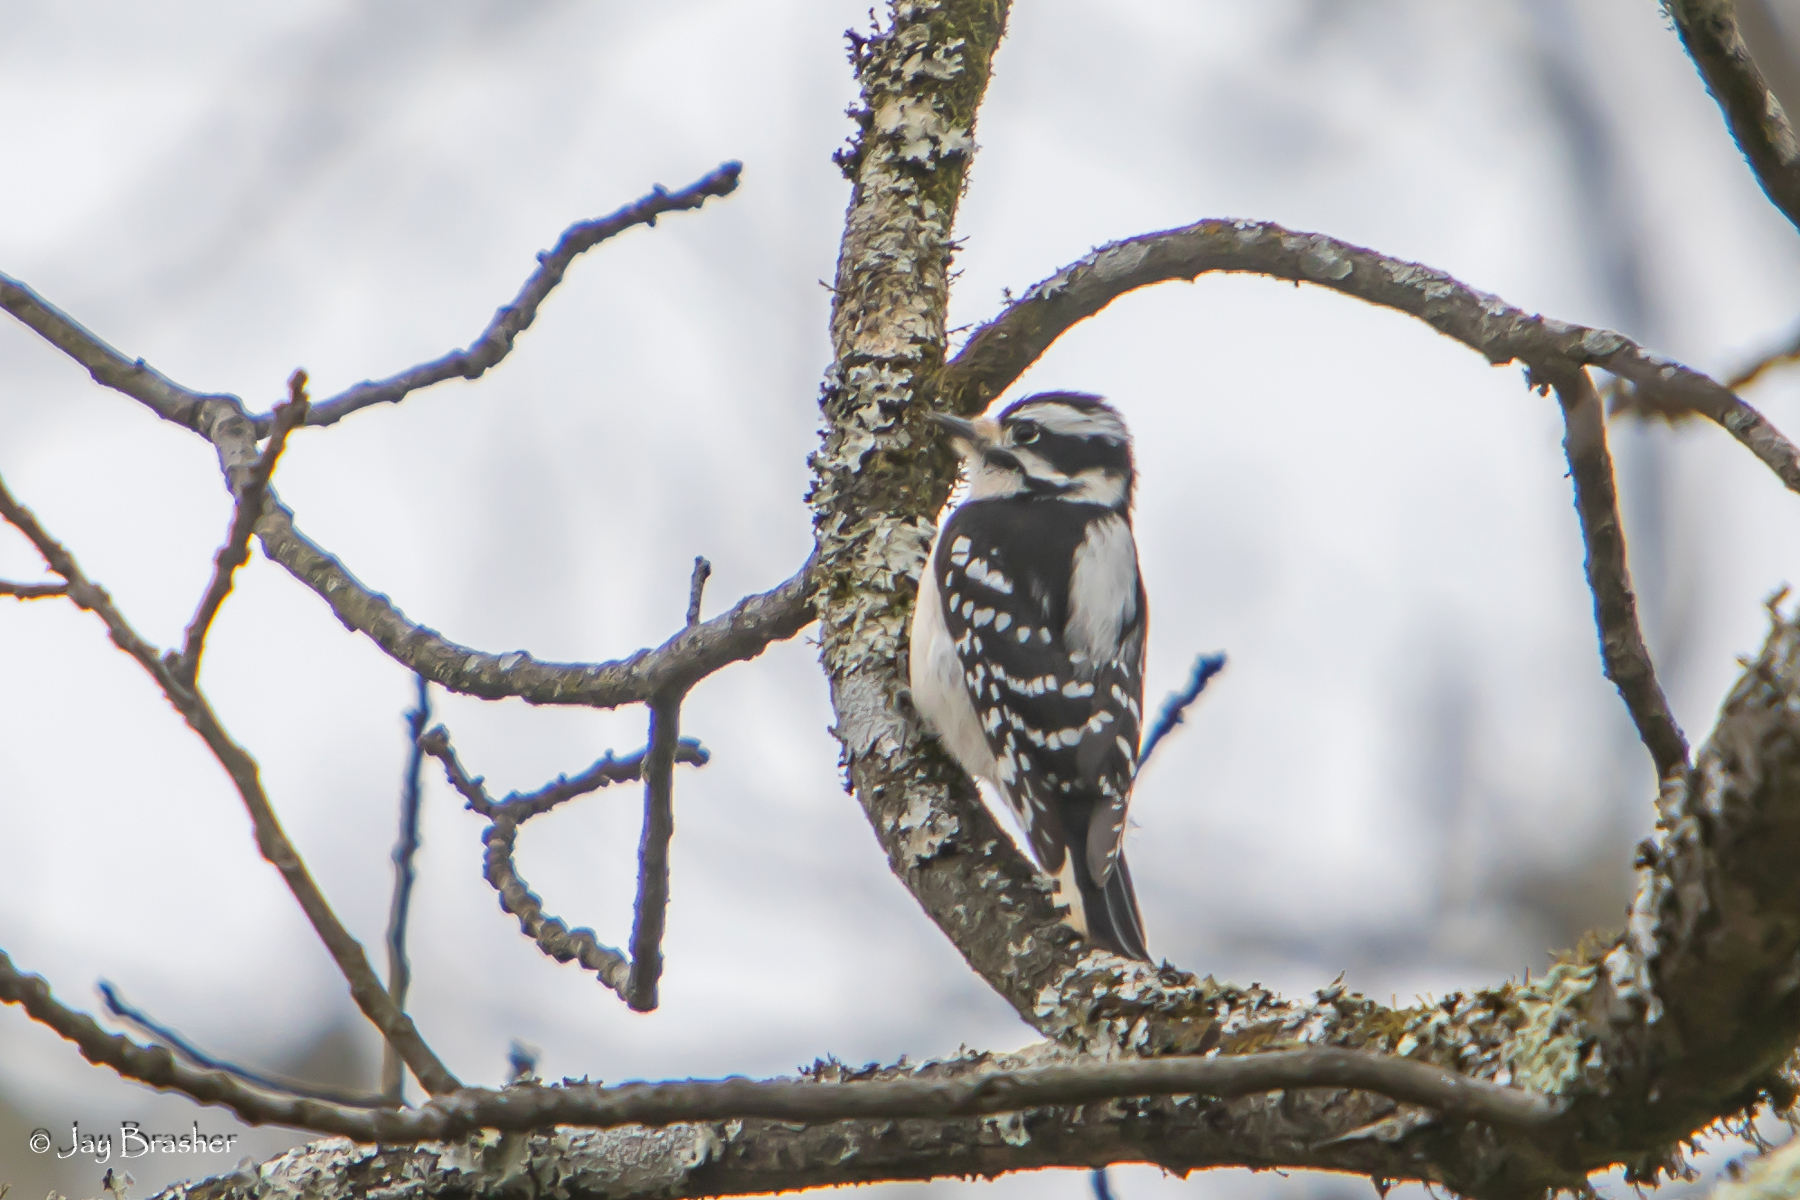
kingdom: Animalia
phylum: Chordata
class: Aves
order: Piciformes
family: Picidae
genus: Dryobates
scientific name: Dryobates pubescens
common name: Downy woodpecker
